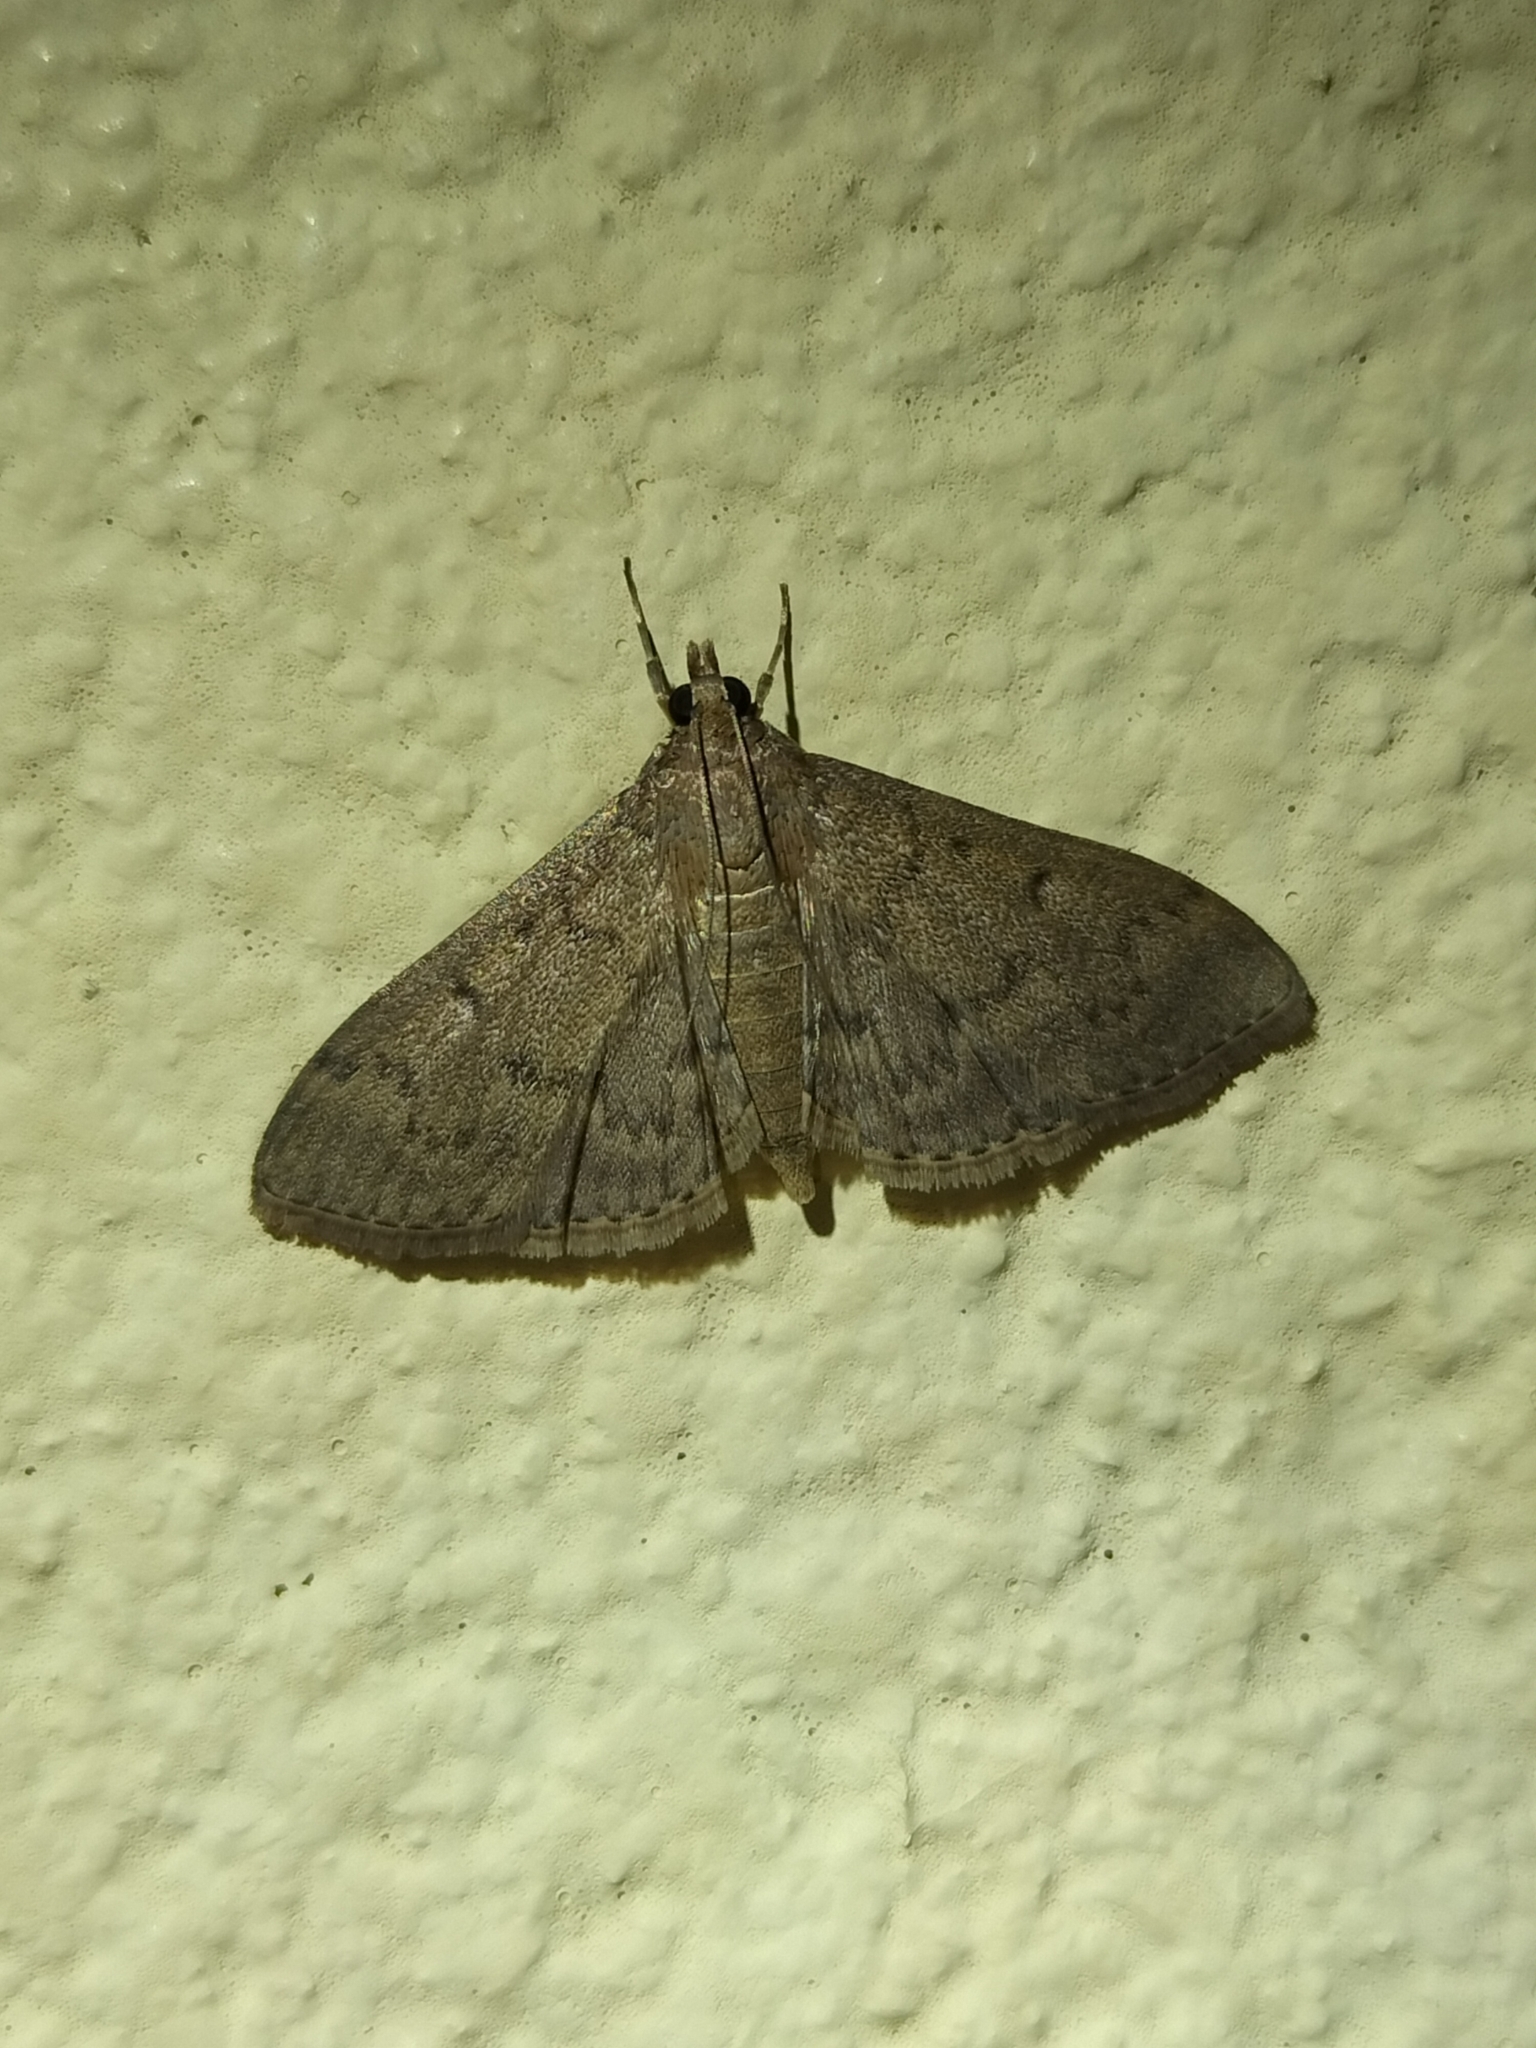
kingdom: Animalia
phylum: Arthropoda
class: Insecta
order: Lepidoptera
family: Crambidae
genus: Herpetogramma
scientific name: Herpetogramma licarsisalis
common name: Grass webworm
